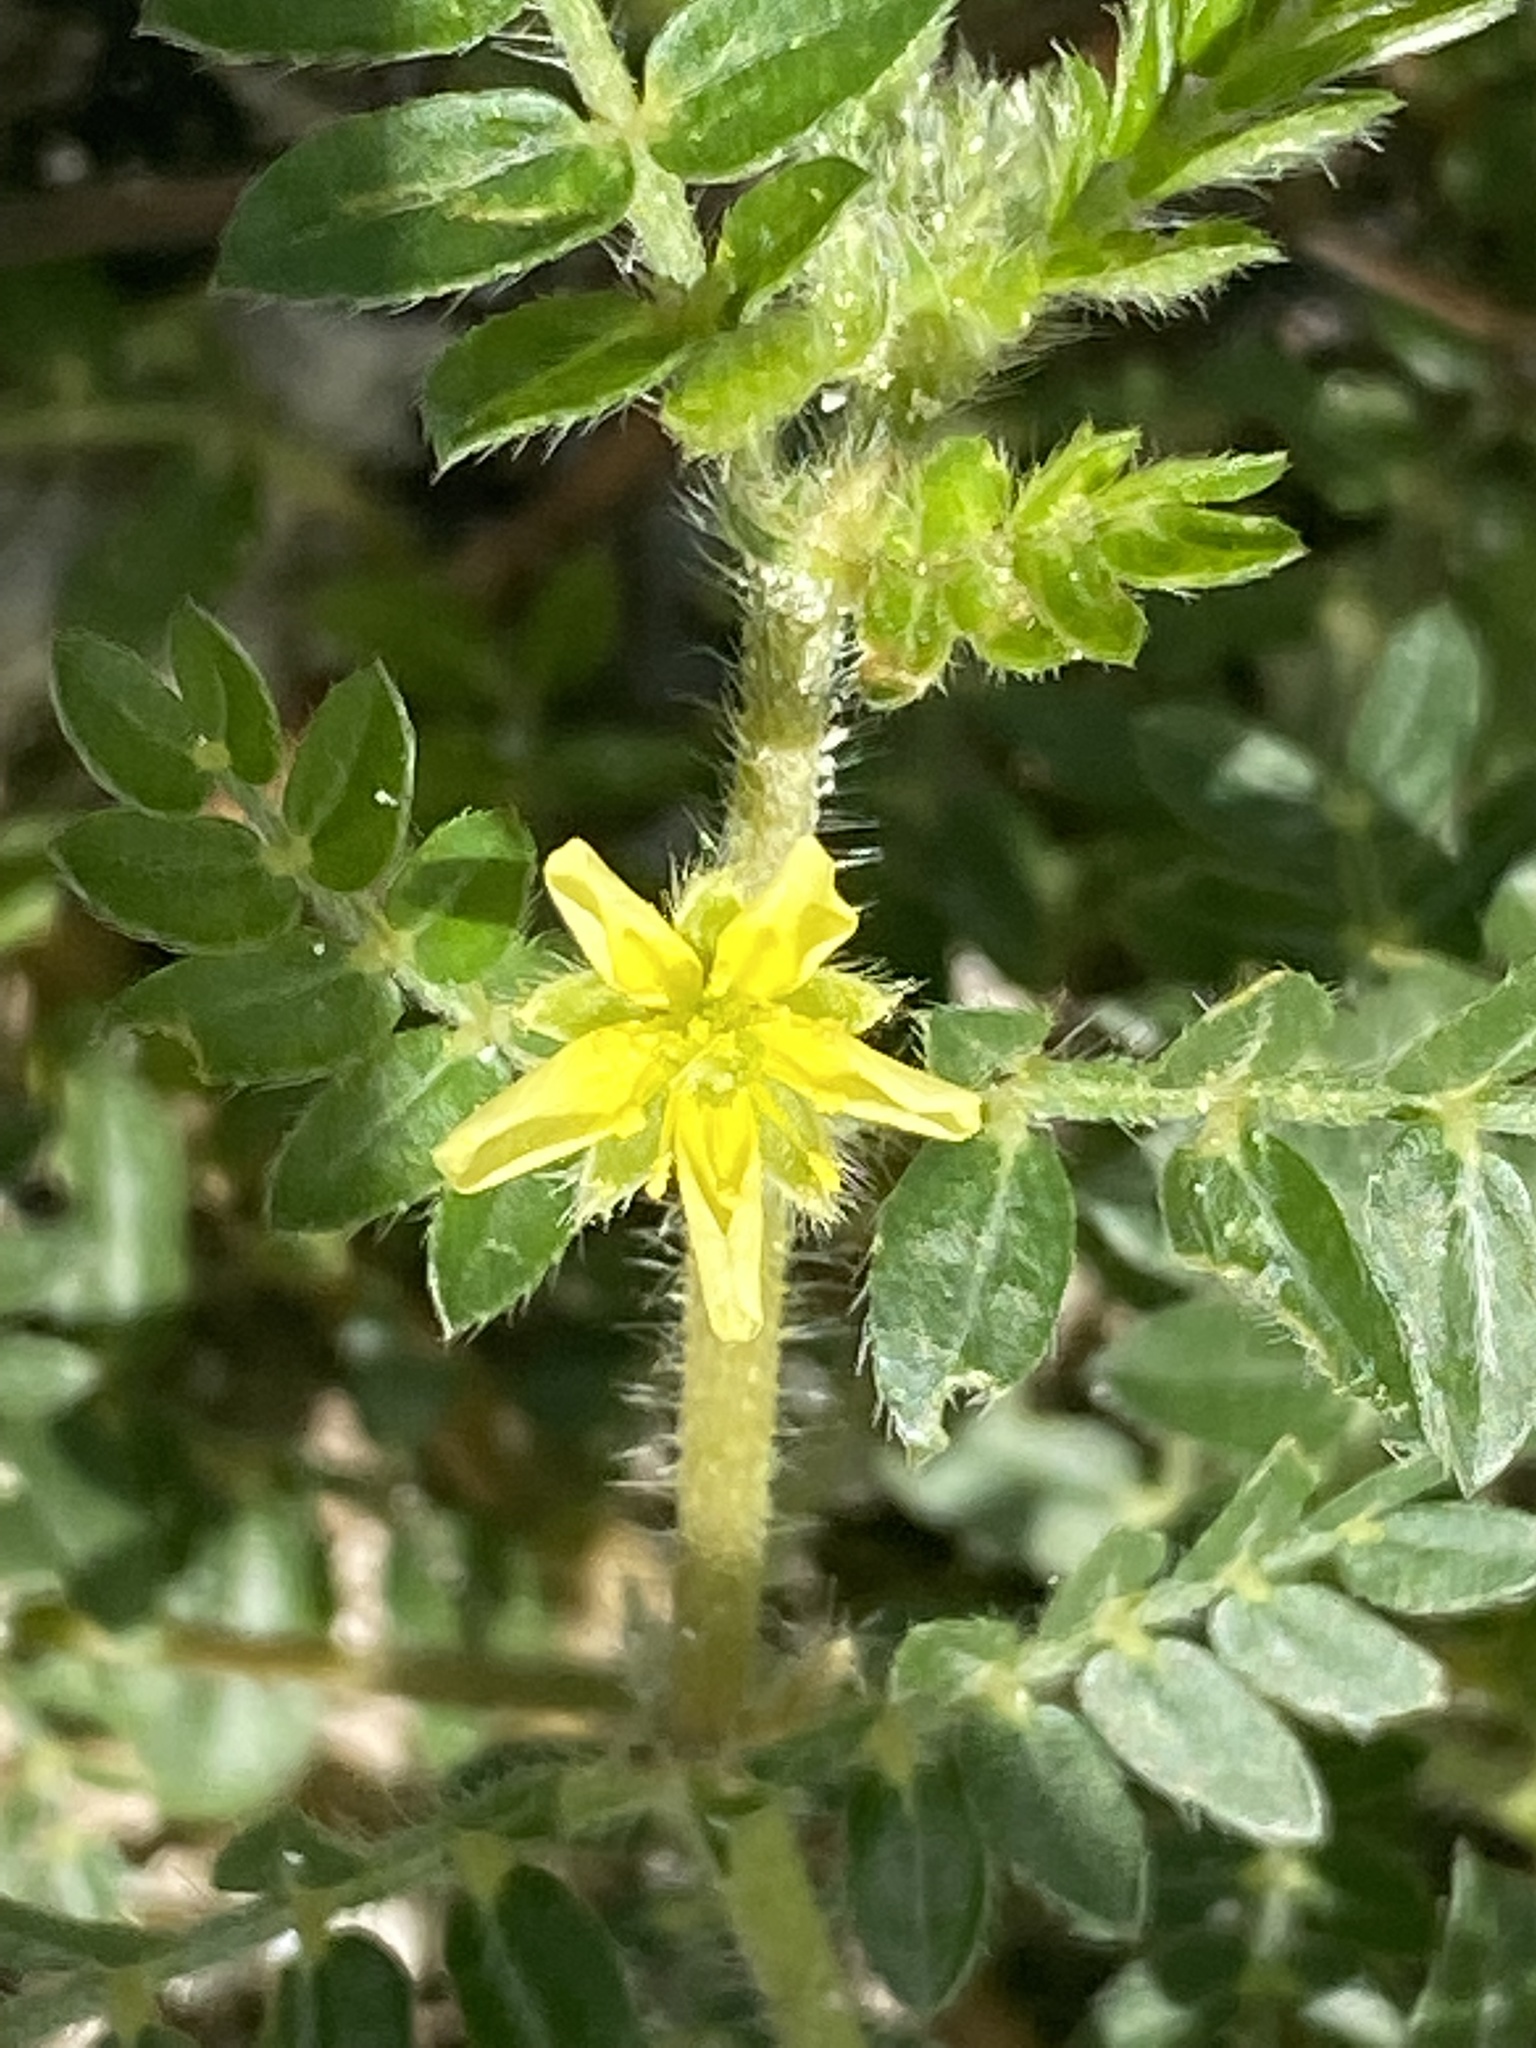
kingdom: Plantae
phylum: Tracheophyta
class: Magnoliopsida
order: Zygophyllales
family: Zygophyllaceae
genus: Tribulus
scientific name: Tribulus terrestris
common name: Puncturevine
